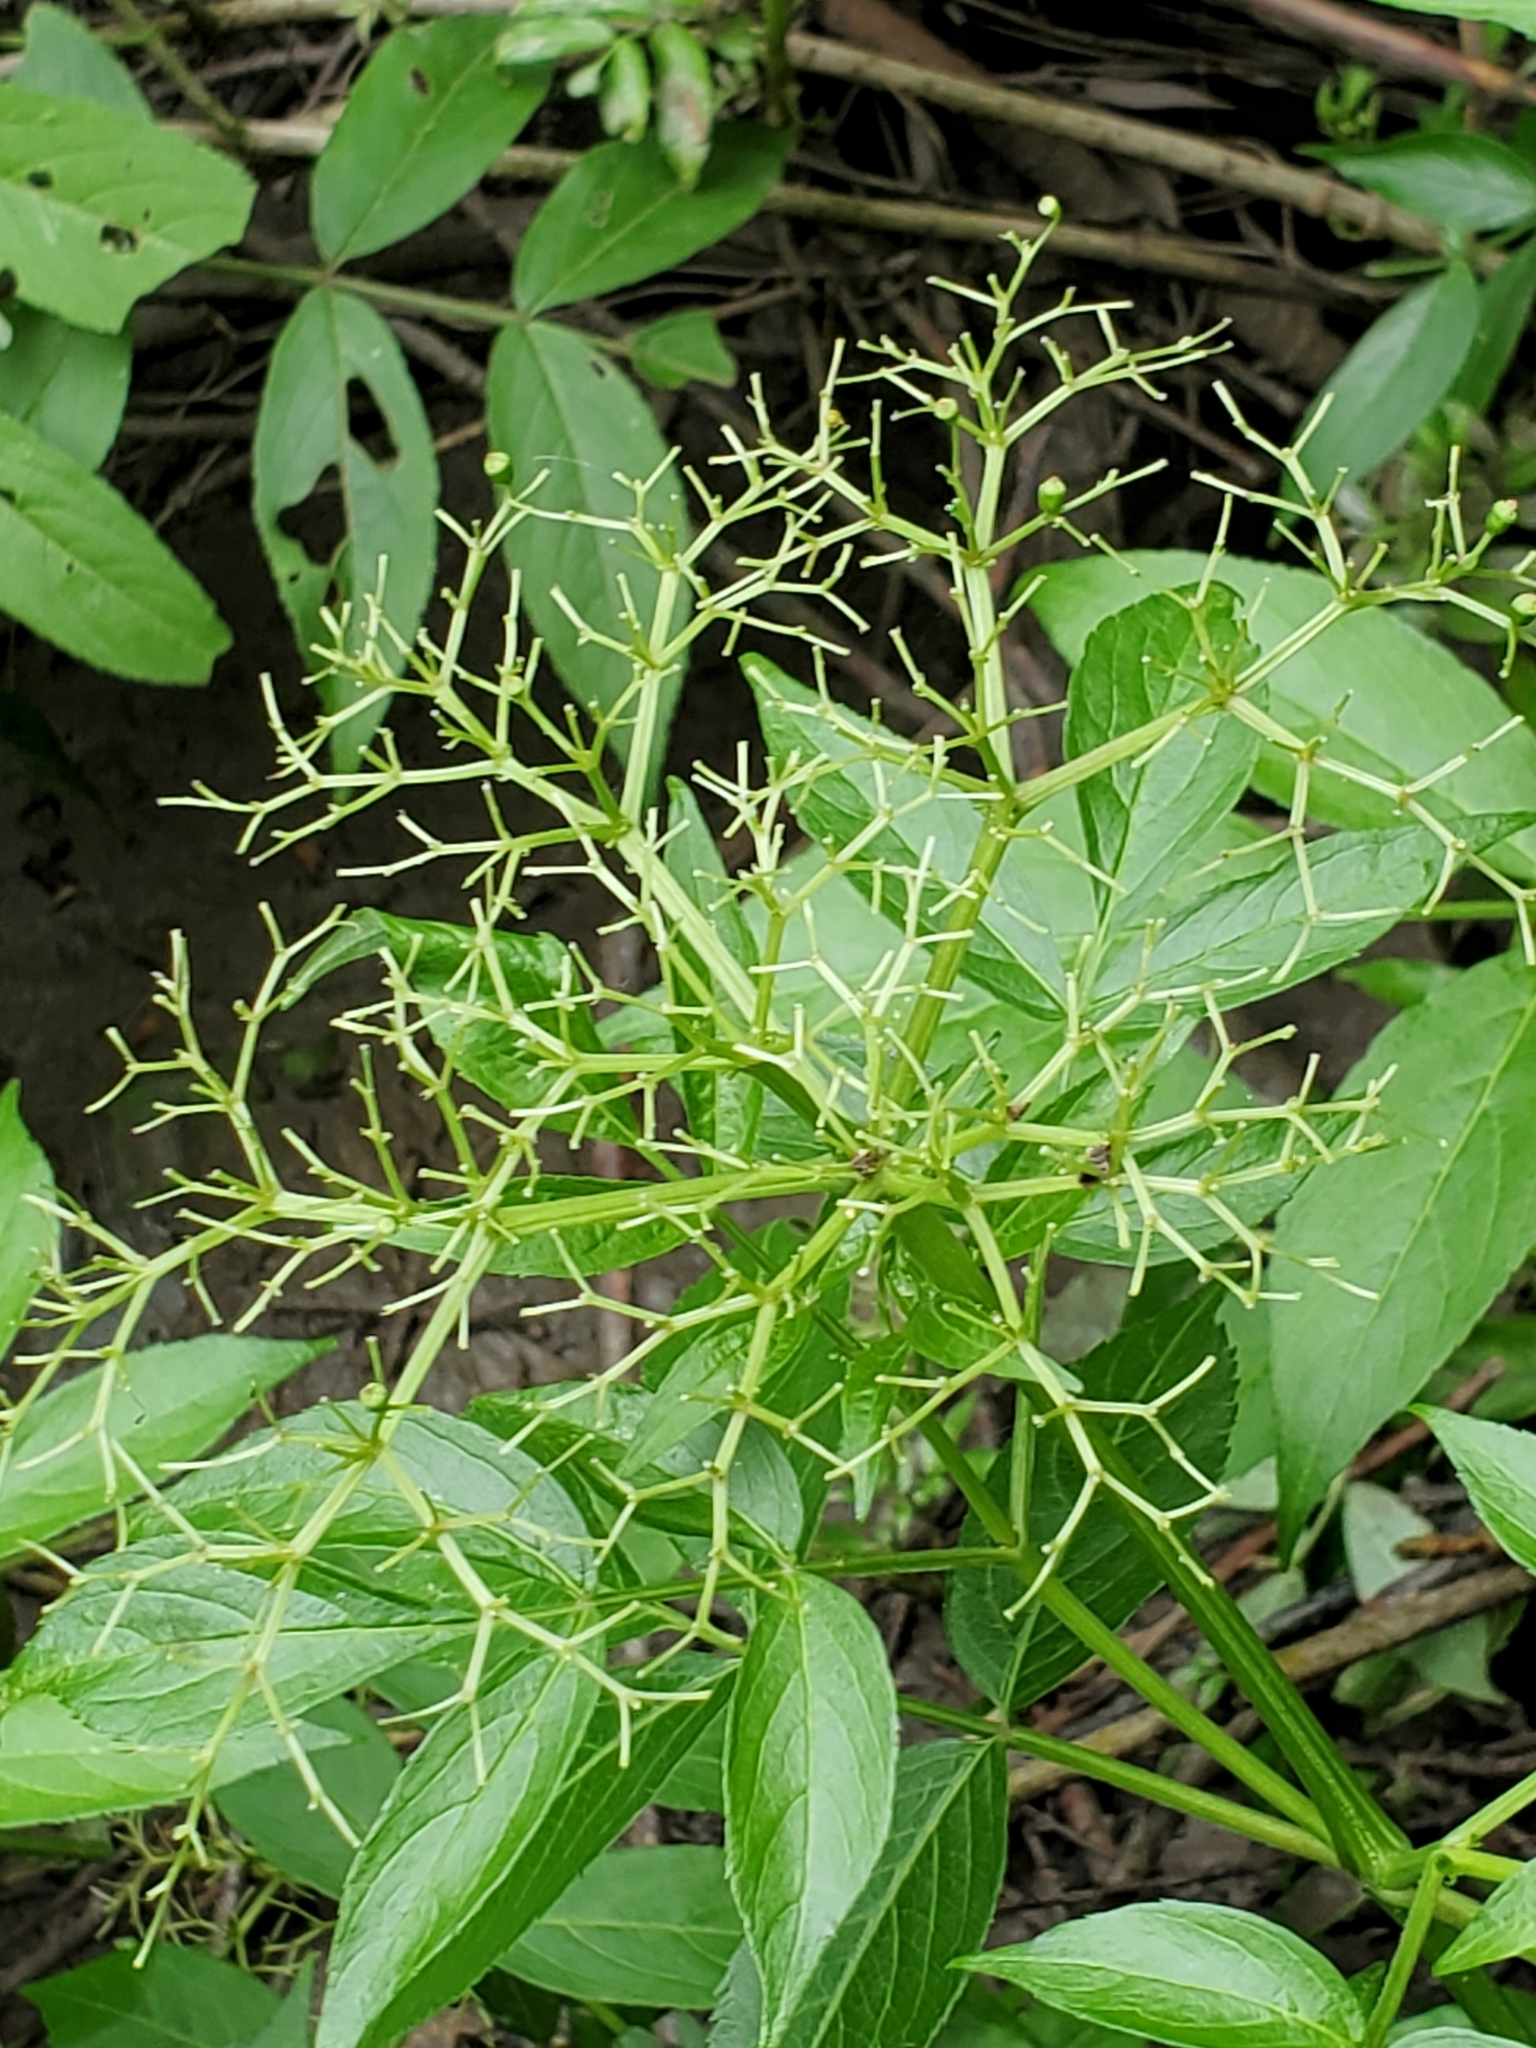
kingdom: Plantae
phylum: Tracheophyta
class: Magnoliopsida
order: Dipsacales
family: Viburnaceae
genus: Sambucus
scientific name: Sambucus canadensis
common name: American elder
